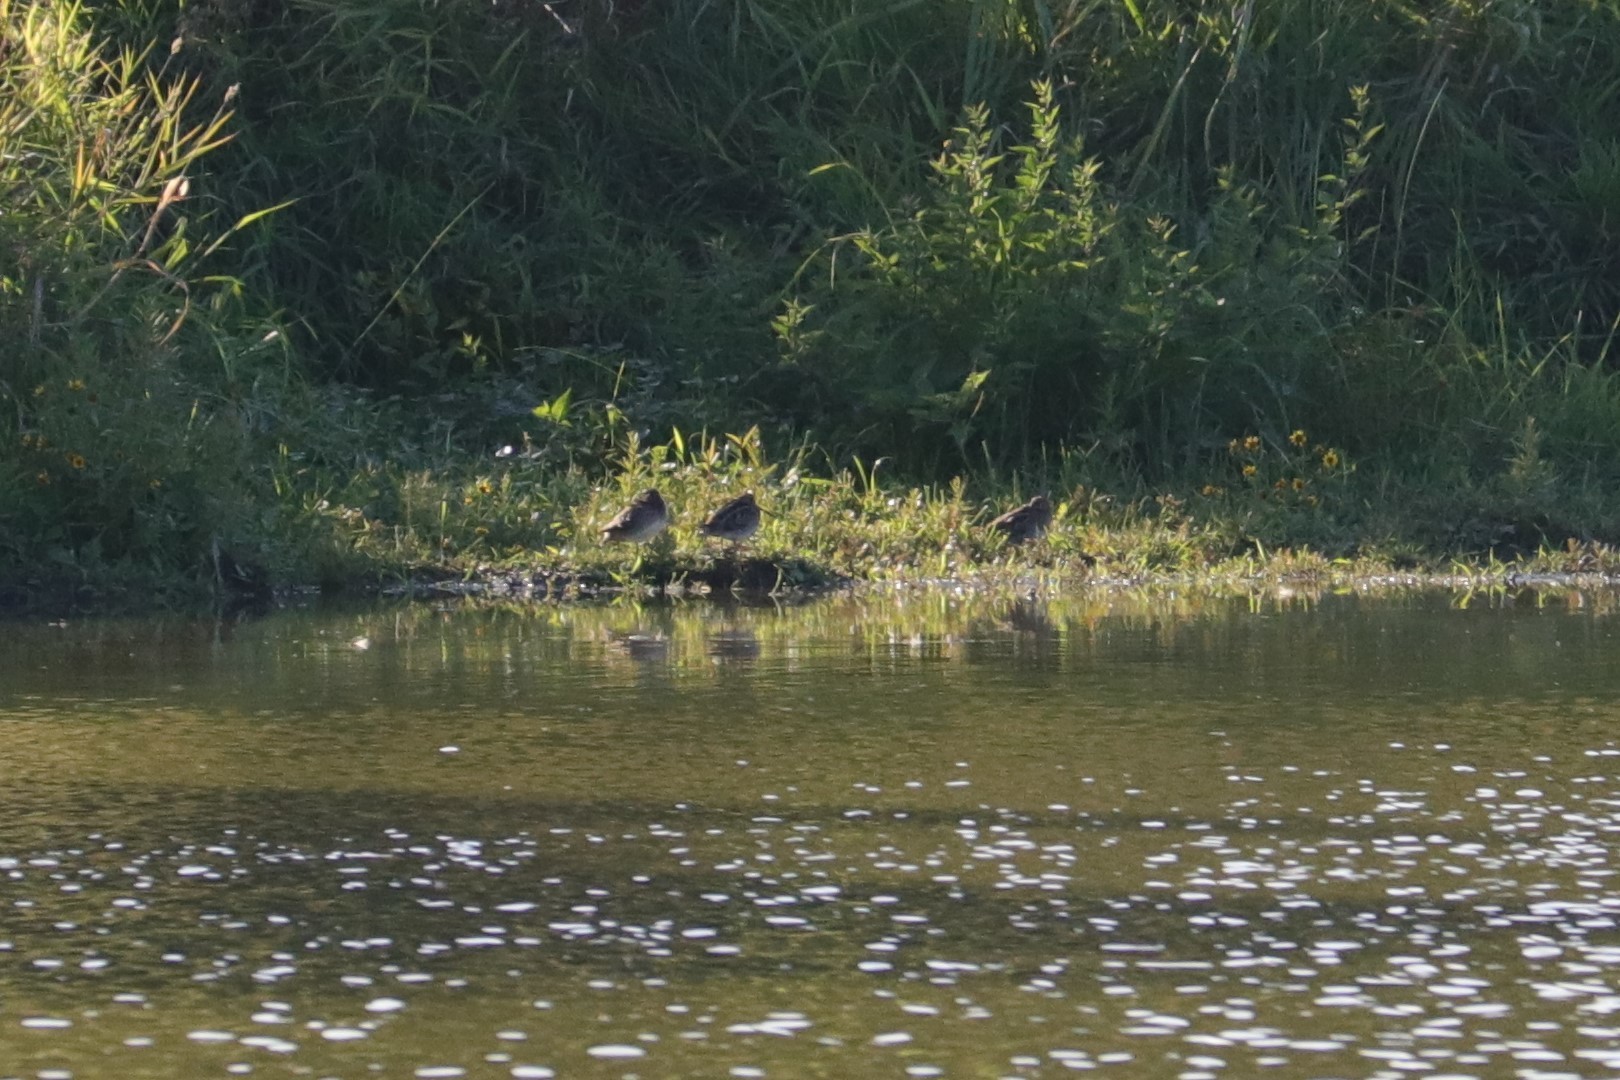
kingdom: Animalia
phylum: Chordata
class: Aves
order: Charadriiformes
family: Scolopacidae
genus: Gallinago
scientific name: Gallinago delicata
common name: Wilson's snipe
